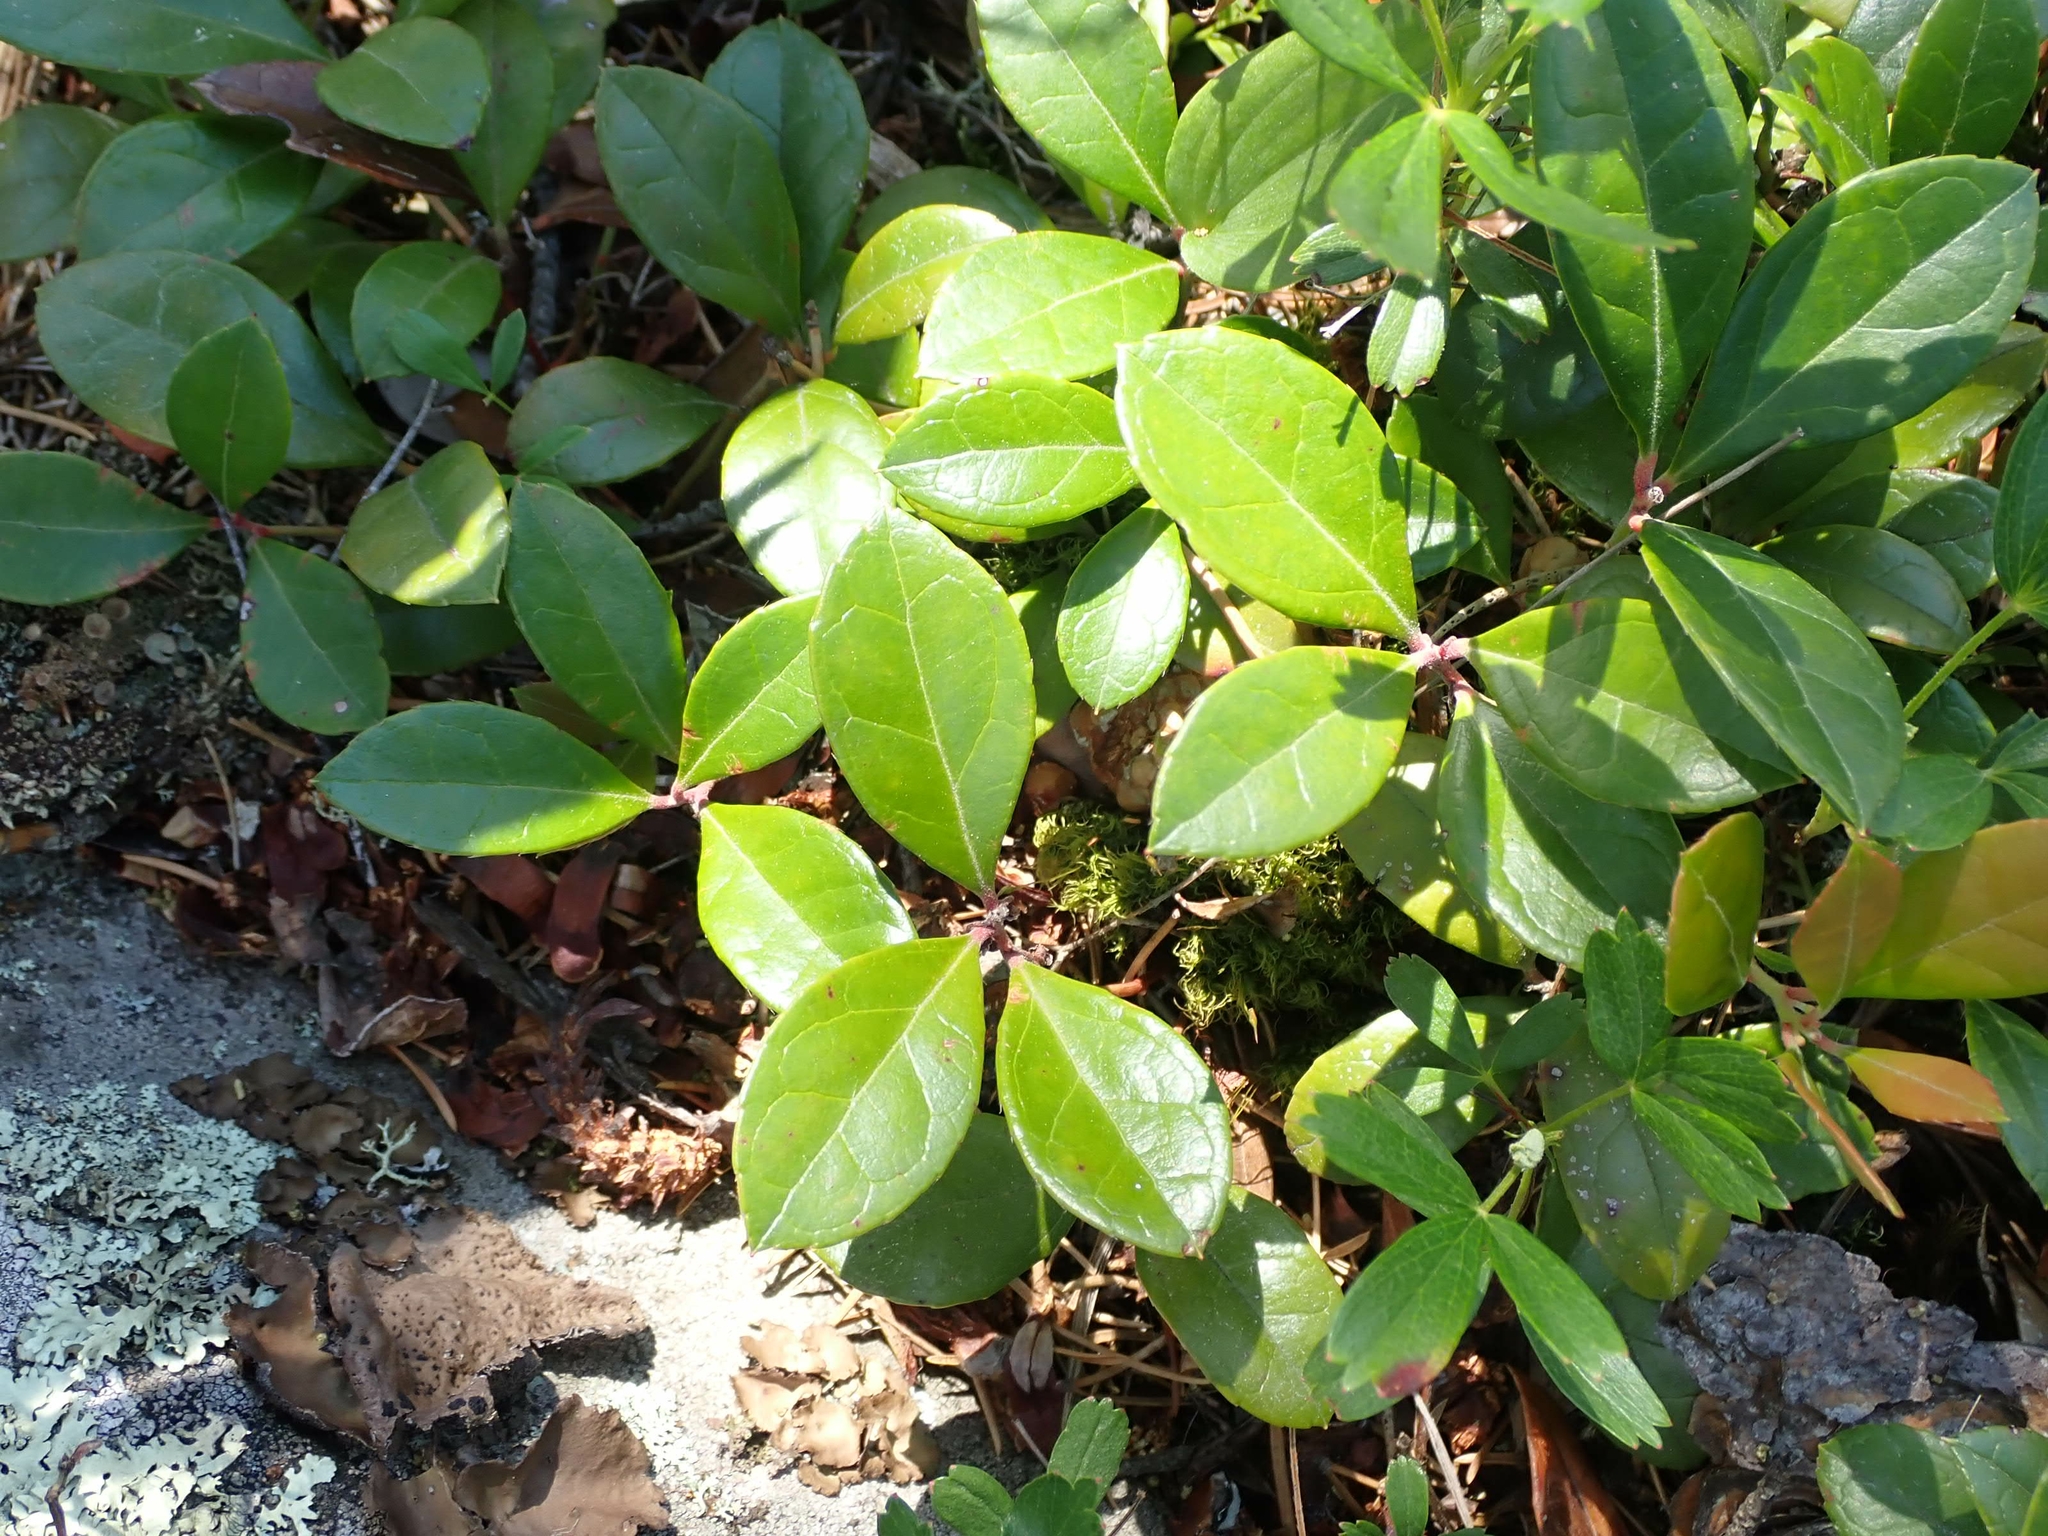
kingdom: Plantae
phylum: Tracheophyta
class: Magnoliopsida
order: Ericales
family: Ericaceae
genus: Gaultheria
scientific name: Gaultheria procumbens
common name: Checkerberry
